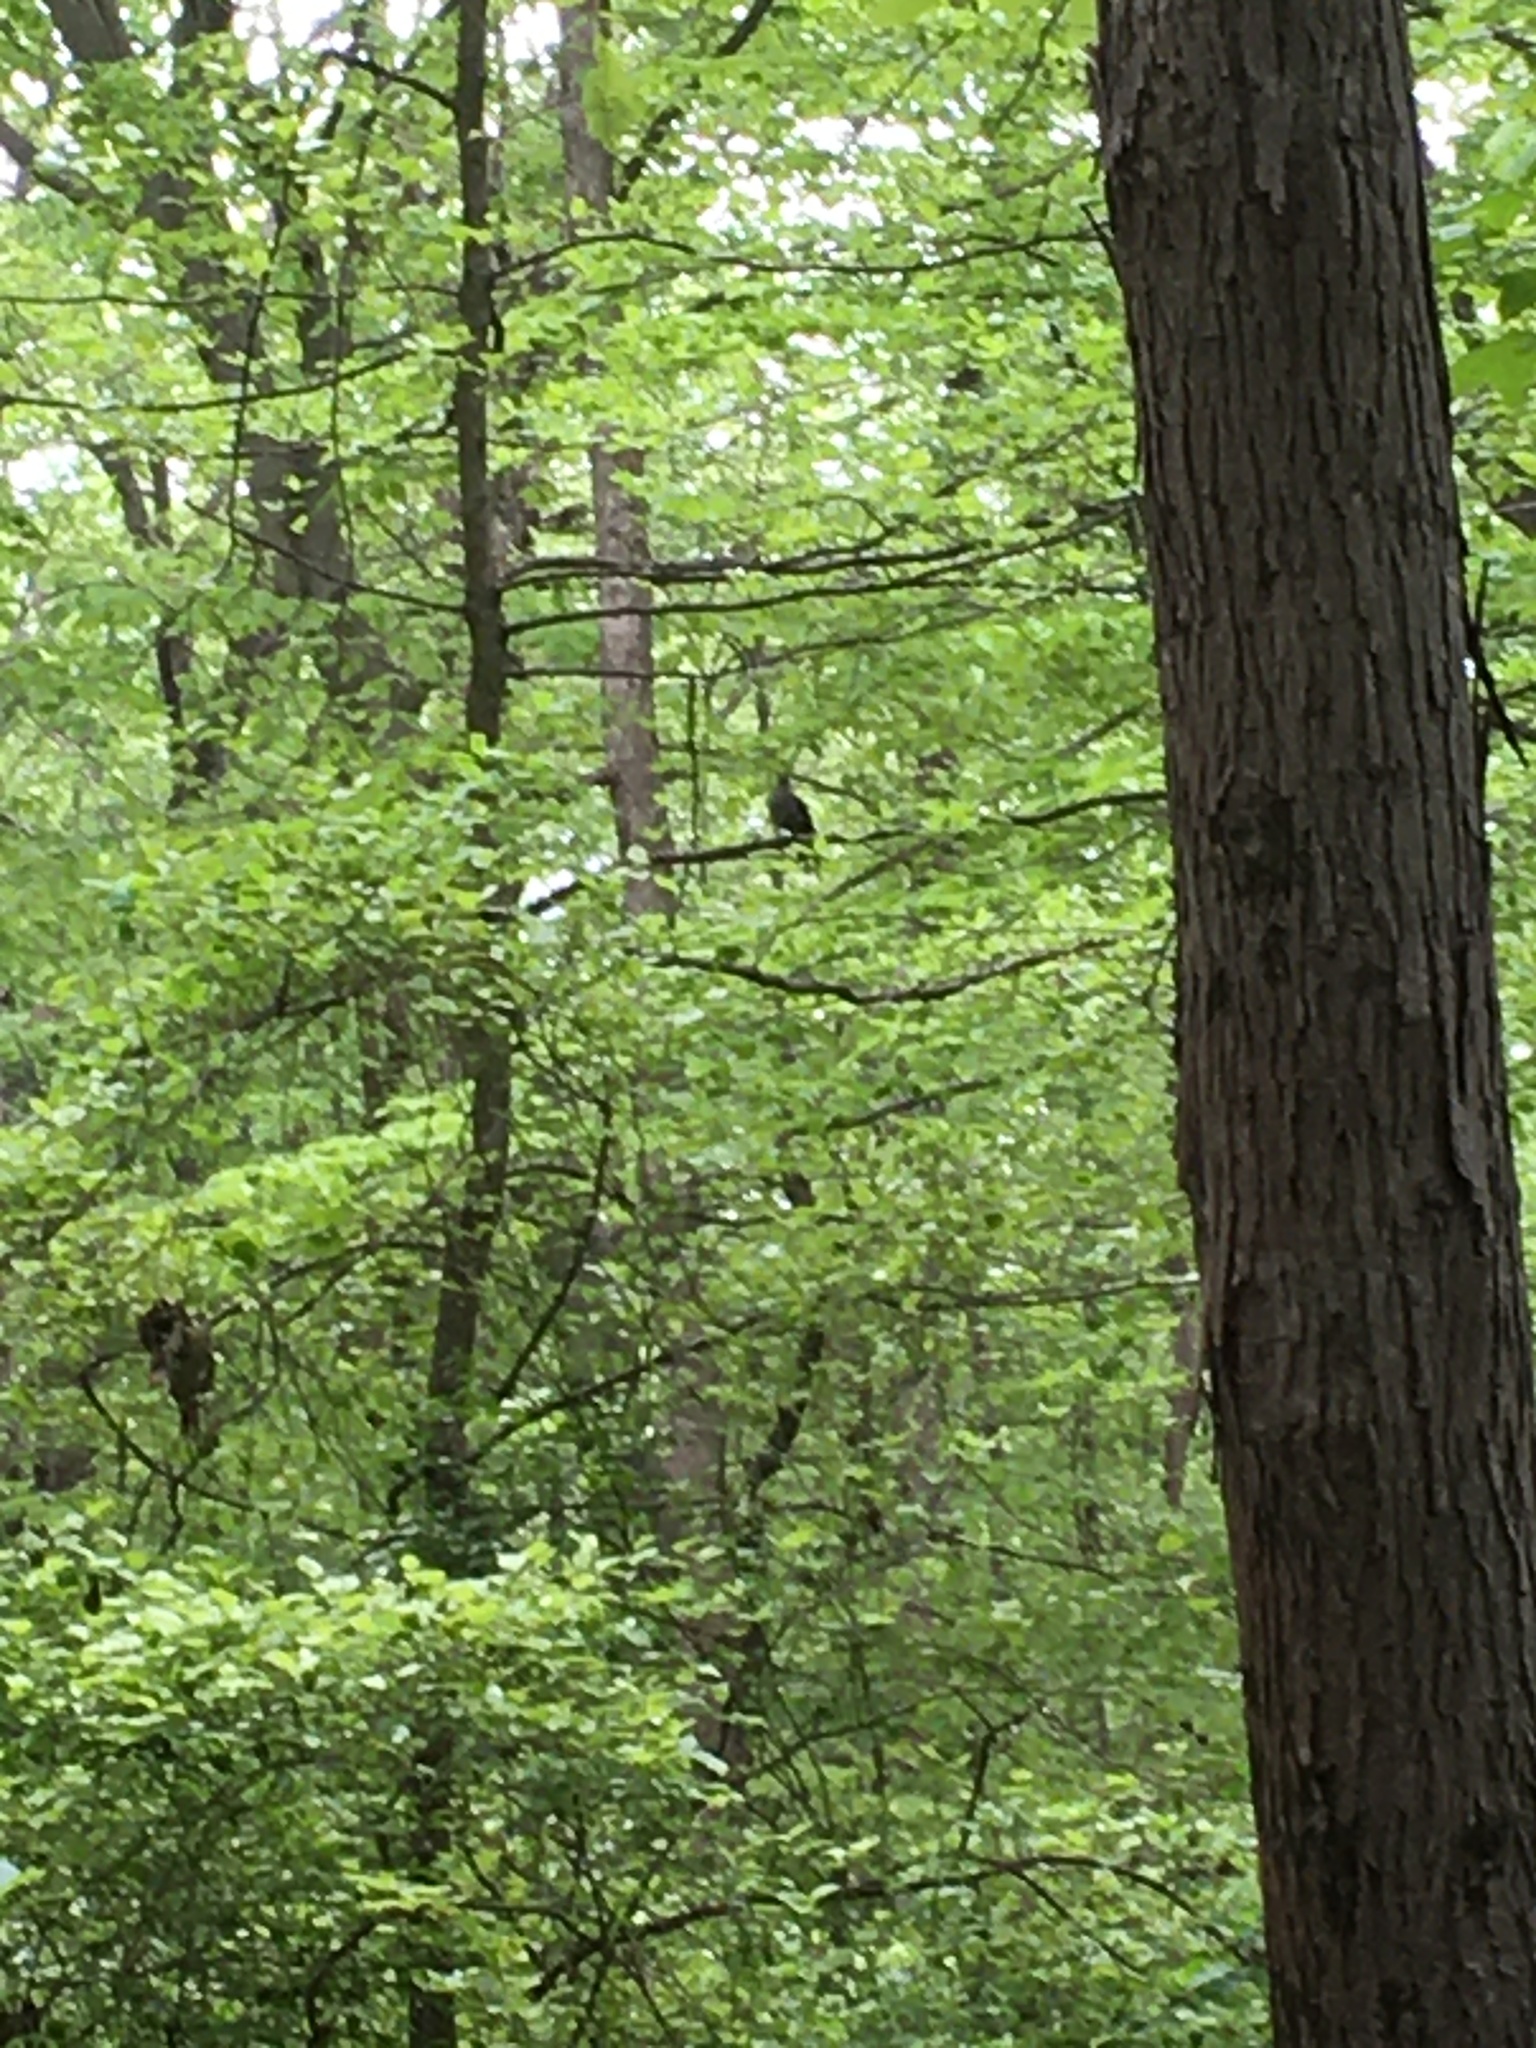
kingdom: Animalia
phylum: Chordata
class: Aves
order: Passeriformes
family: Mimidae
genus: Dumetella
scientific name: Dumetella carolinensis
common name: Gray catbird
